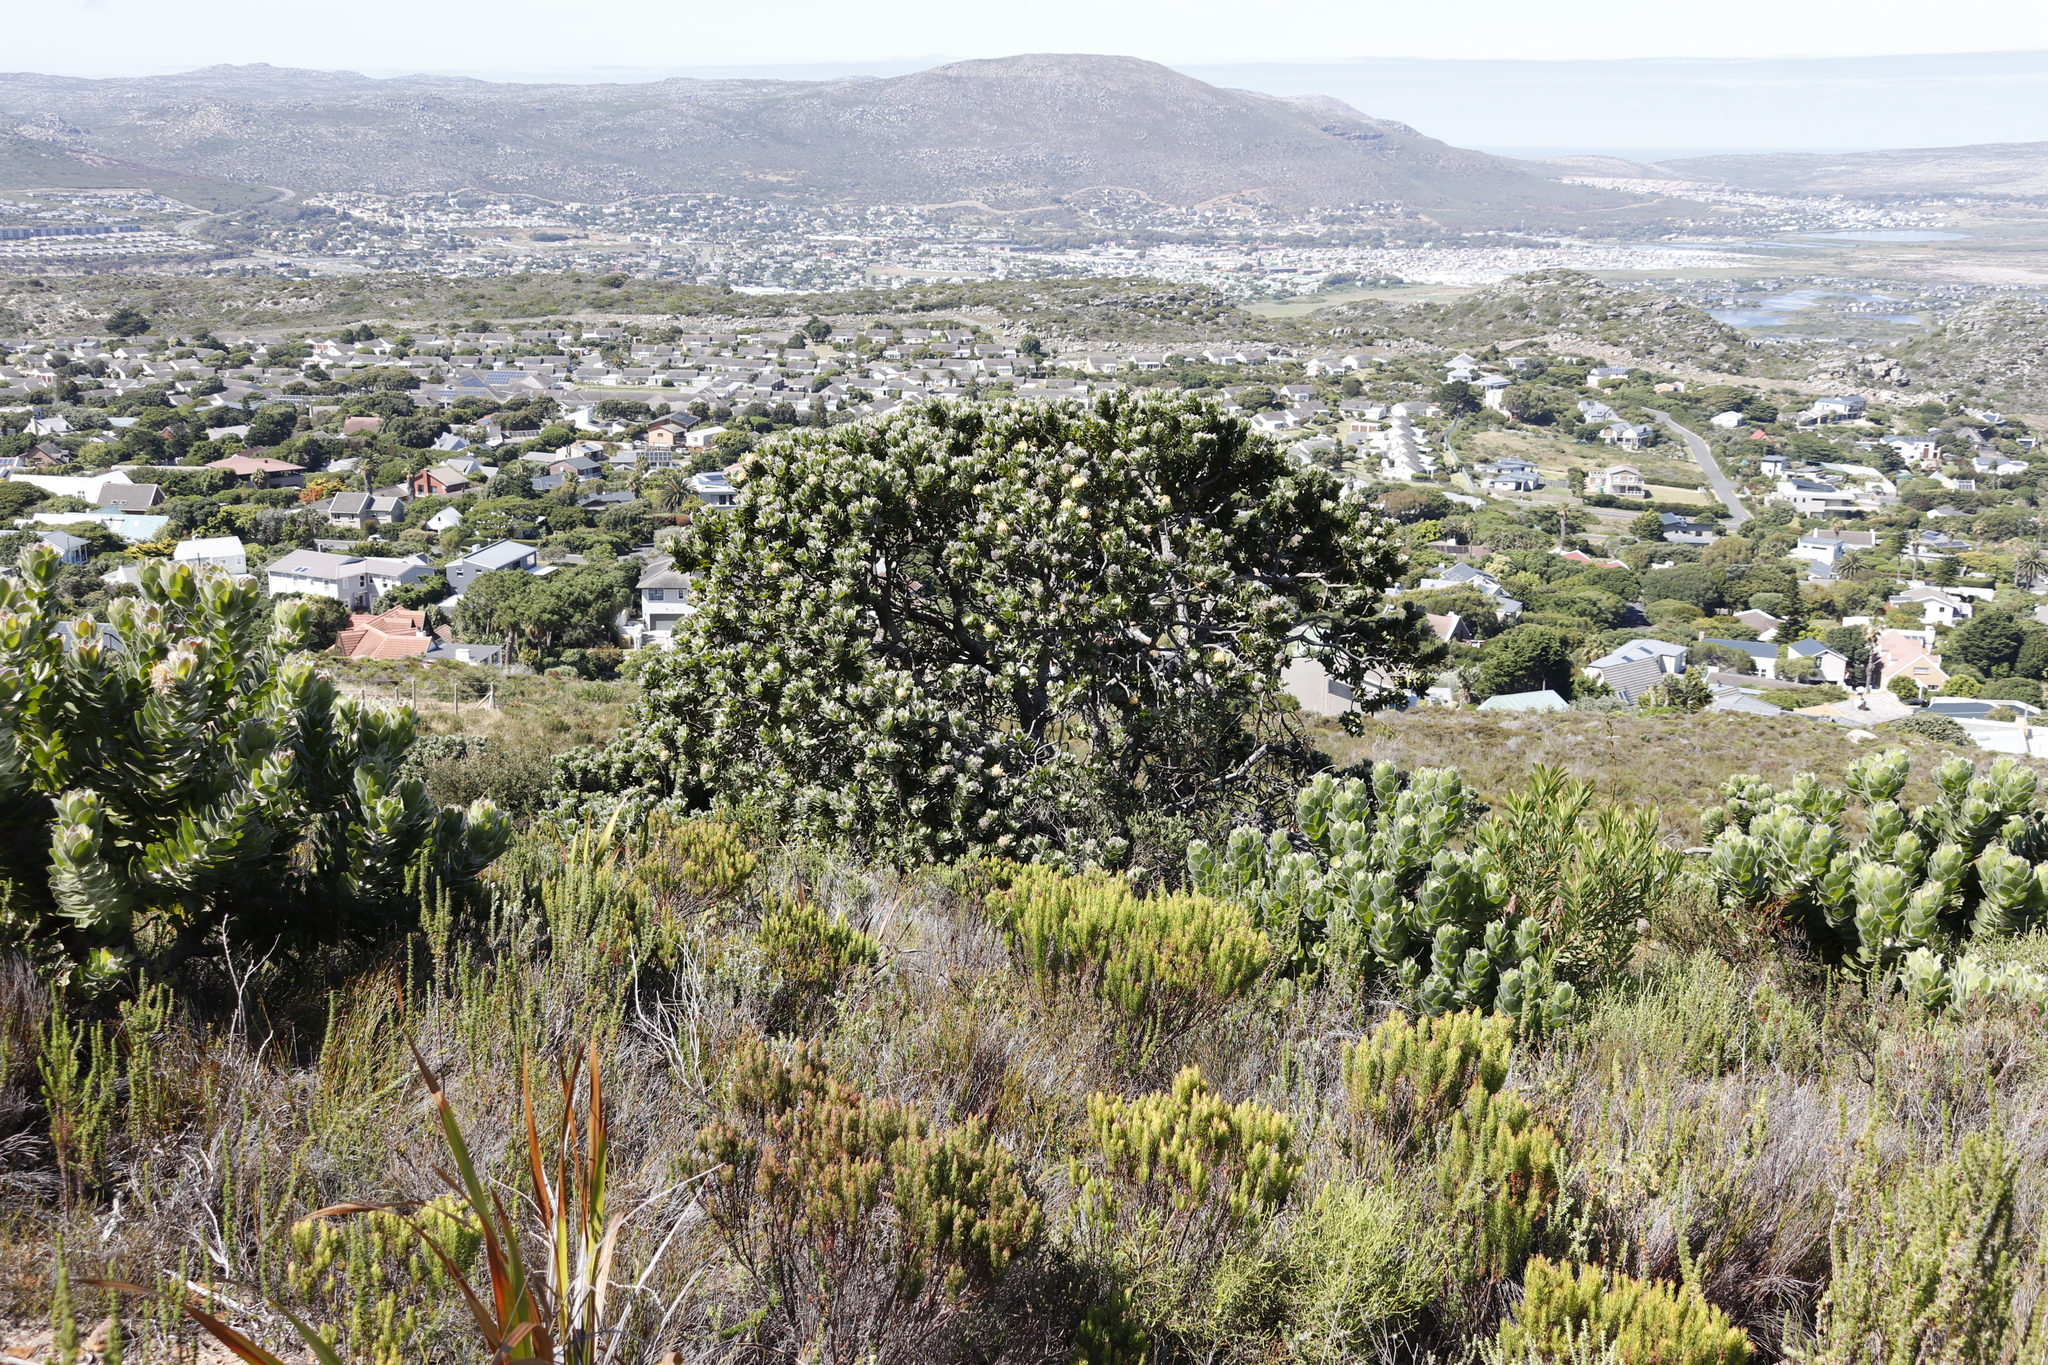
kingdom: Plantae
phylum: Tracheophyta
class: Magnoliopsida
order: Proteales
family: Proteaceae
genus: Leucospermum
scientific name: Leucospermum conocarpodendron
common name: Tree pincushion
